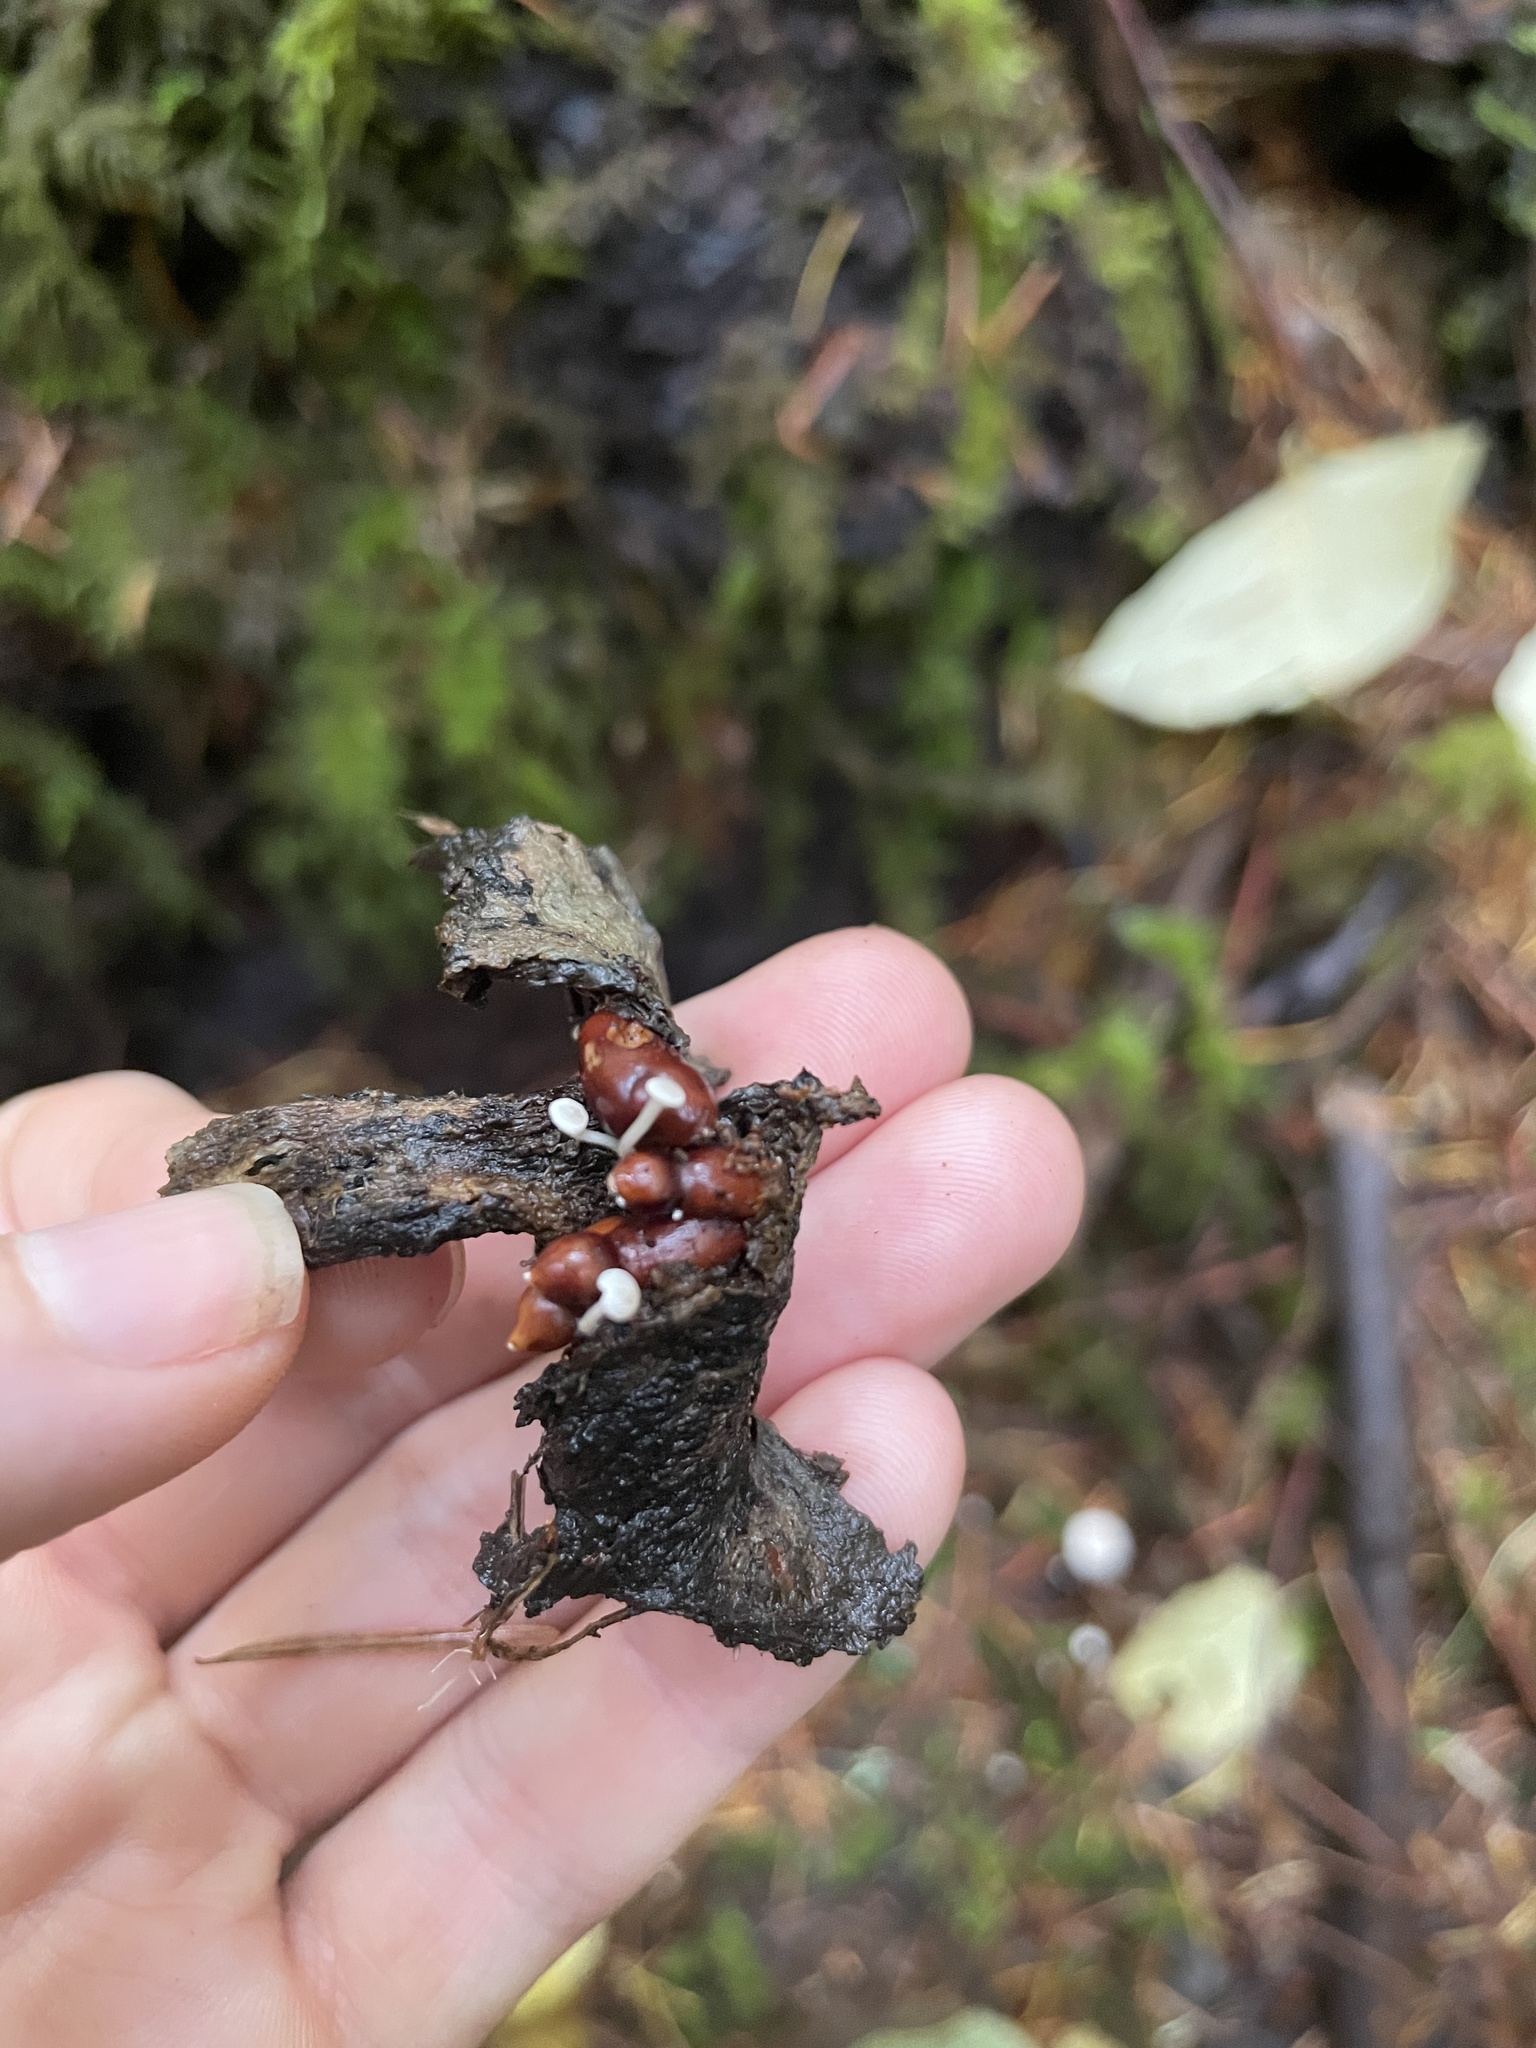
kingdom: Fungi
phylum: Basidiomycota
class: Agaricomycetes
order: Agaricales
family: Tricholomataceae
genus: Collybia
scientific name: Collybia tuberosa
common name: Lentil shanklet
